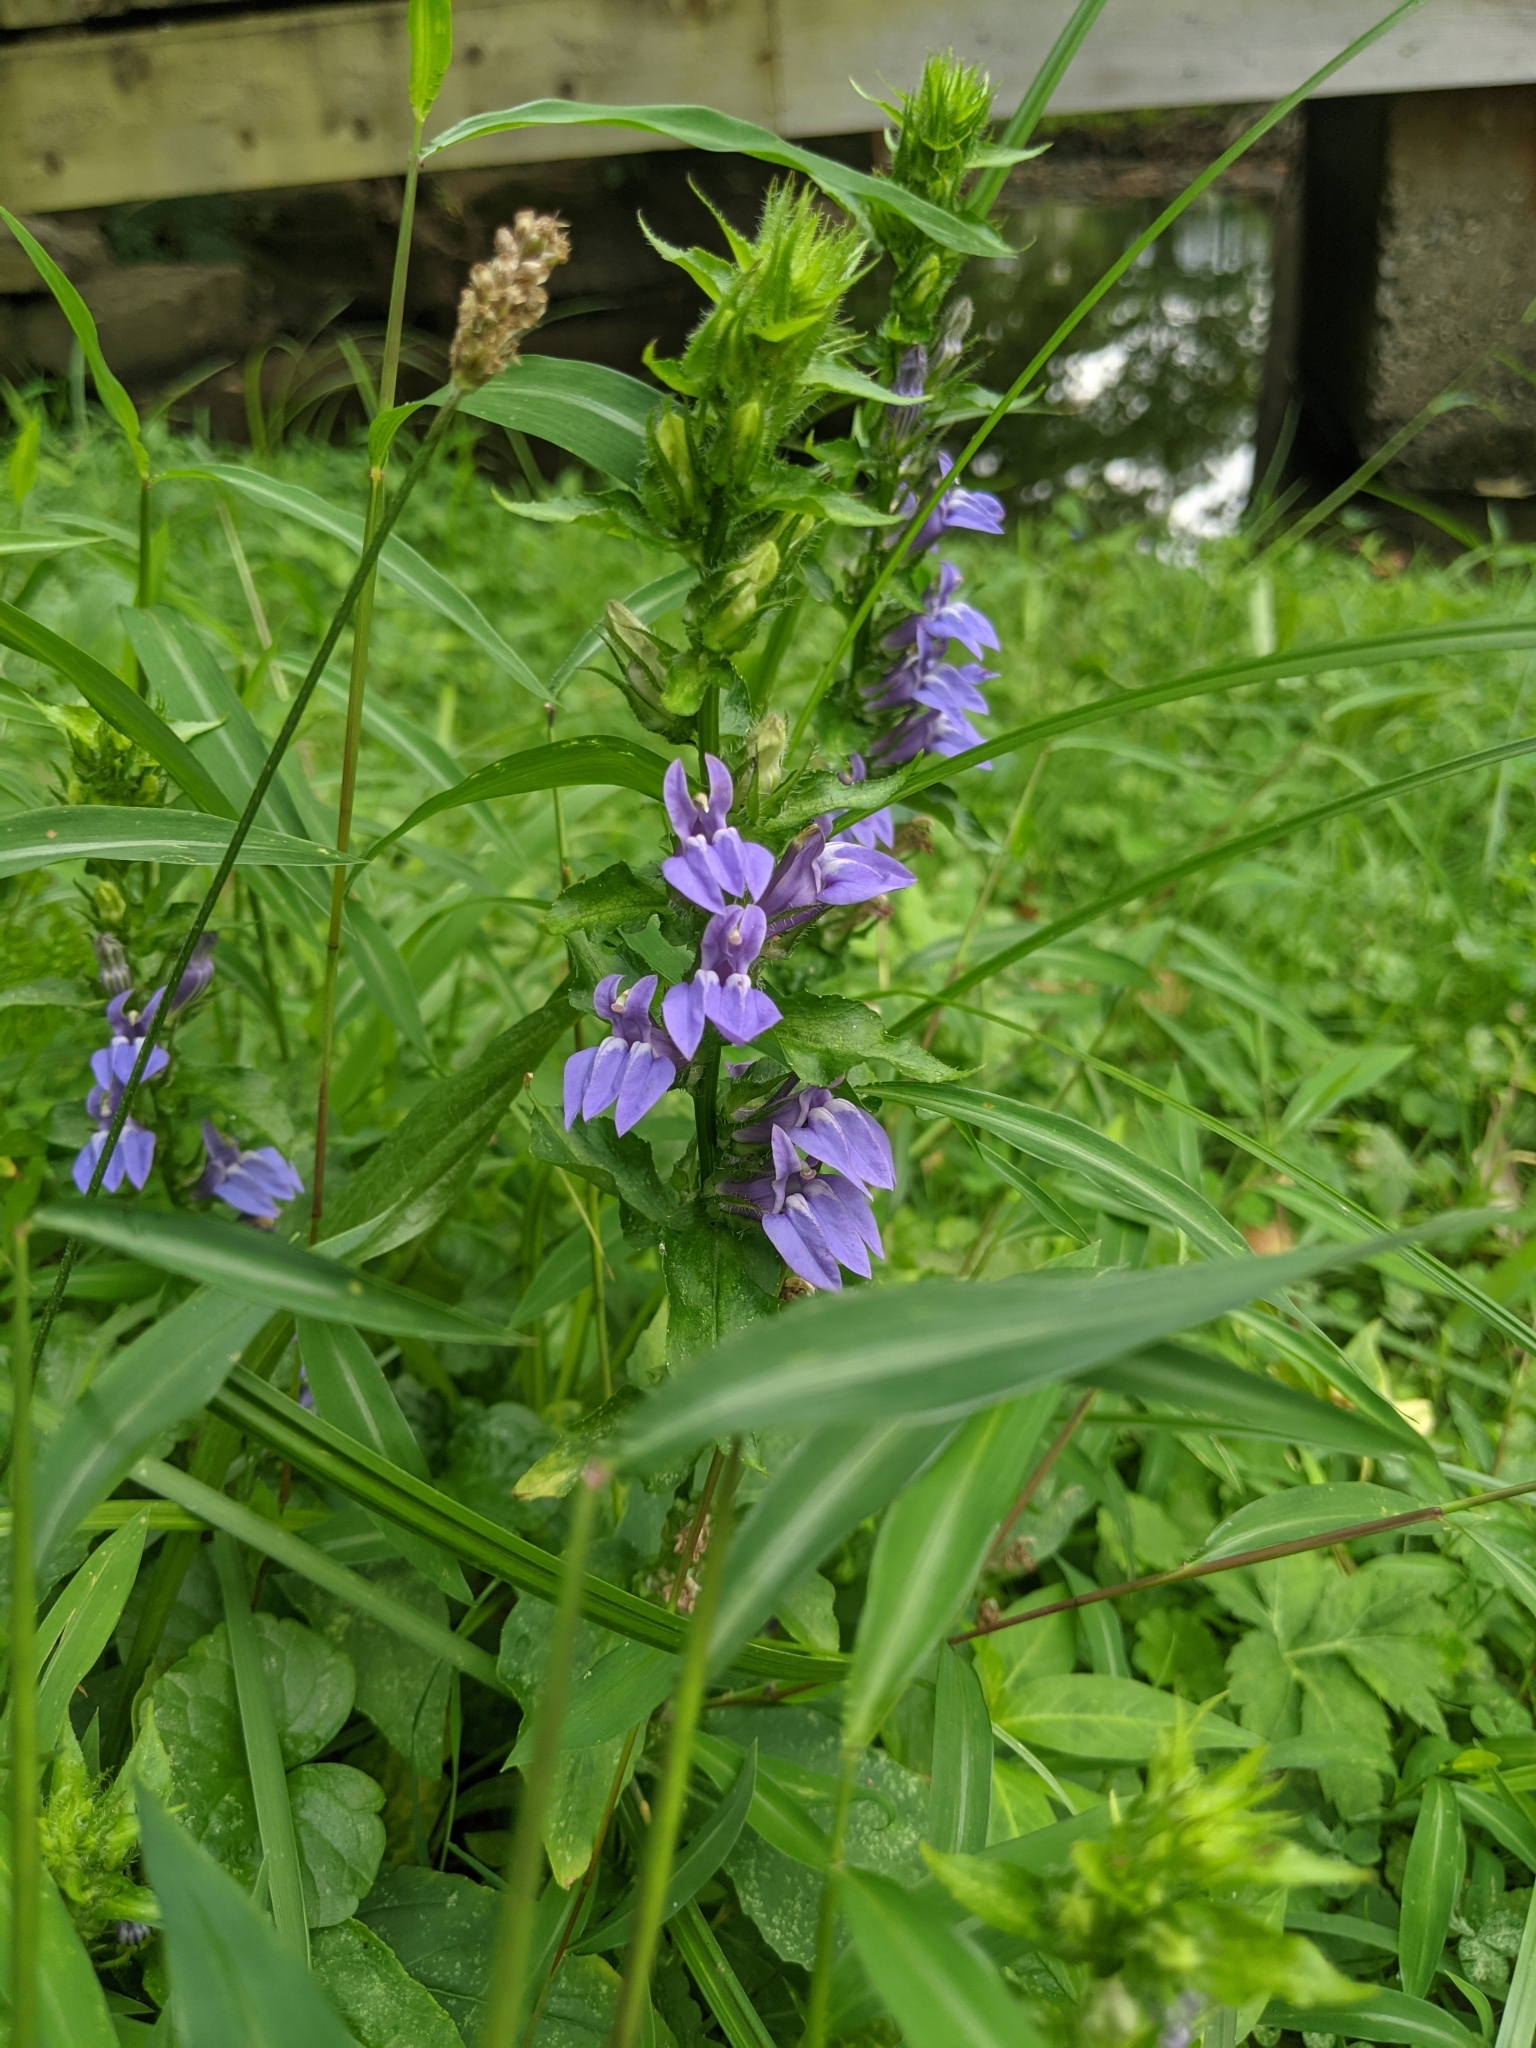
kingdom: Plantae
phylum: Tracheophyta
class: Magnoliopsida
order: Asterales
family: Campanulaceae
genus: Lobelia
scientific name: Lobelia siphilitica
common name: Great lobelia
